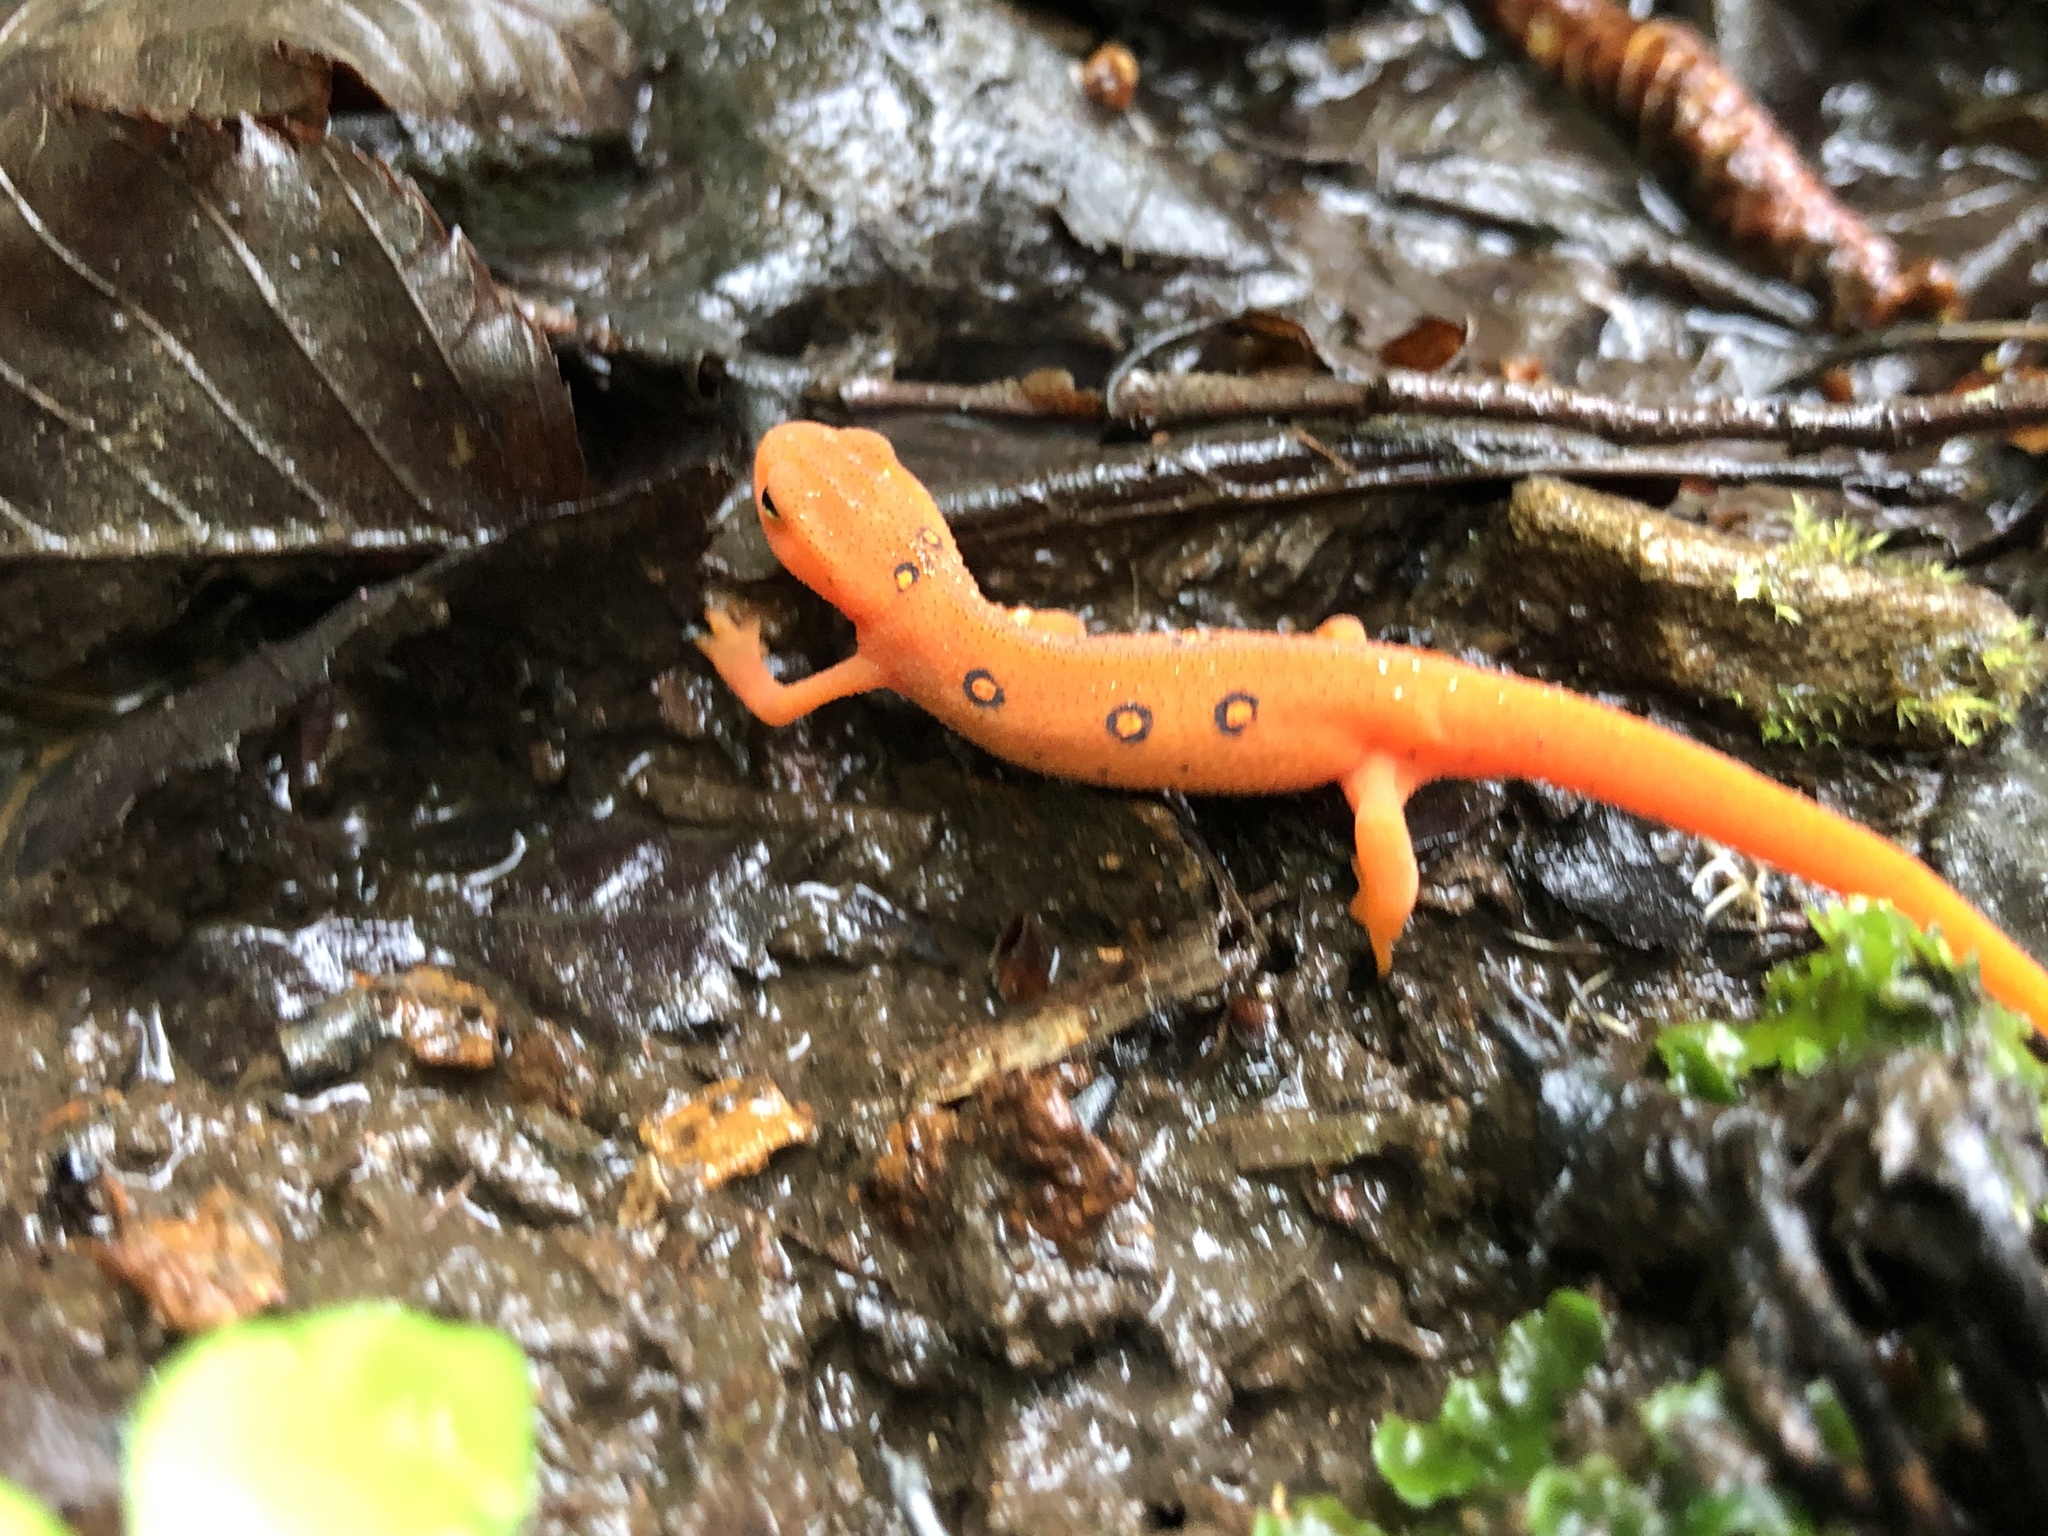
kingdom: Animalia
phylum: Chordata
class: Amphibia
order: Caudata
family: Salamandridae
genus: Notophthalmus
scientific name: Notophthalmus viridescens
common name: Eastern newt
